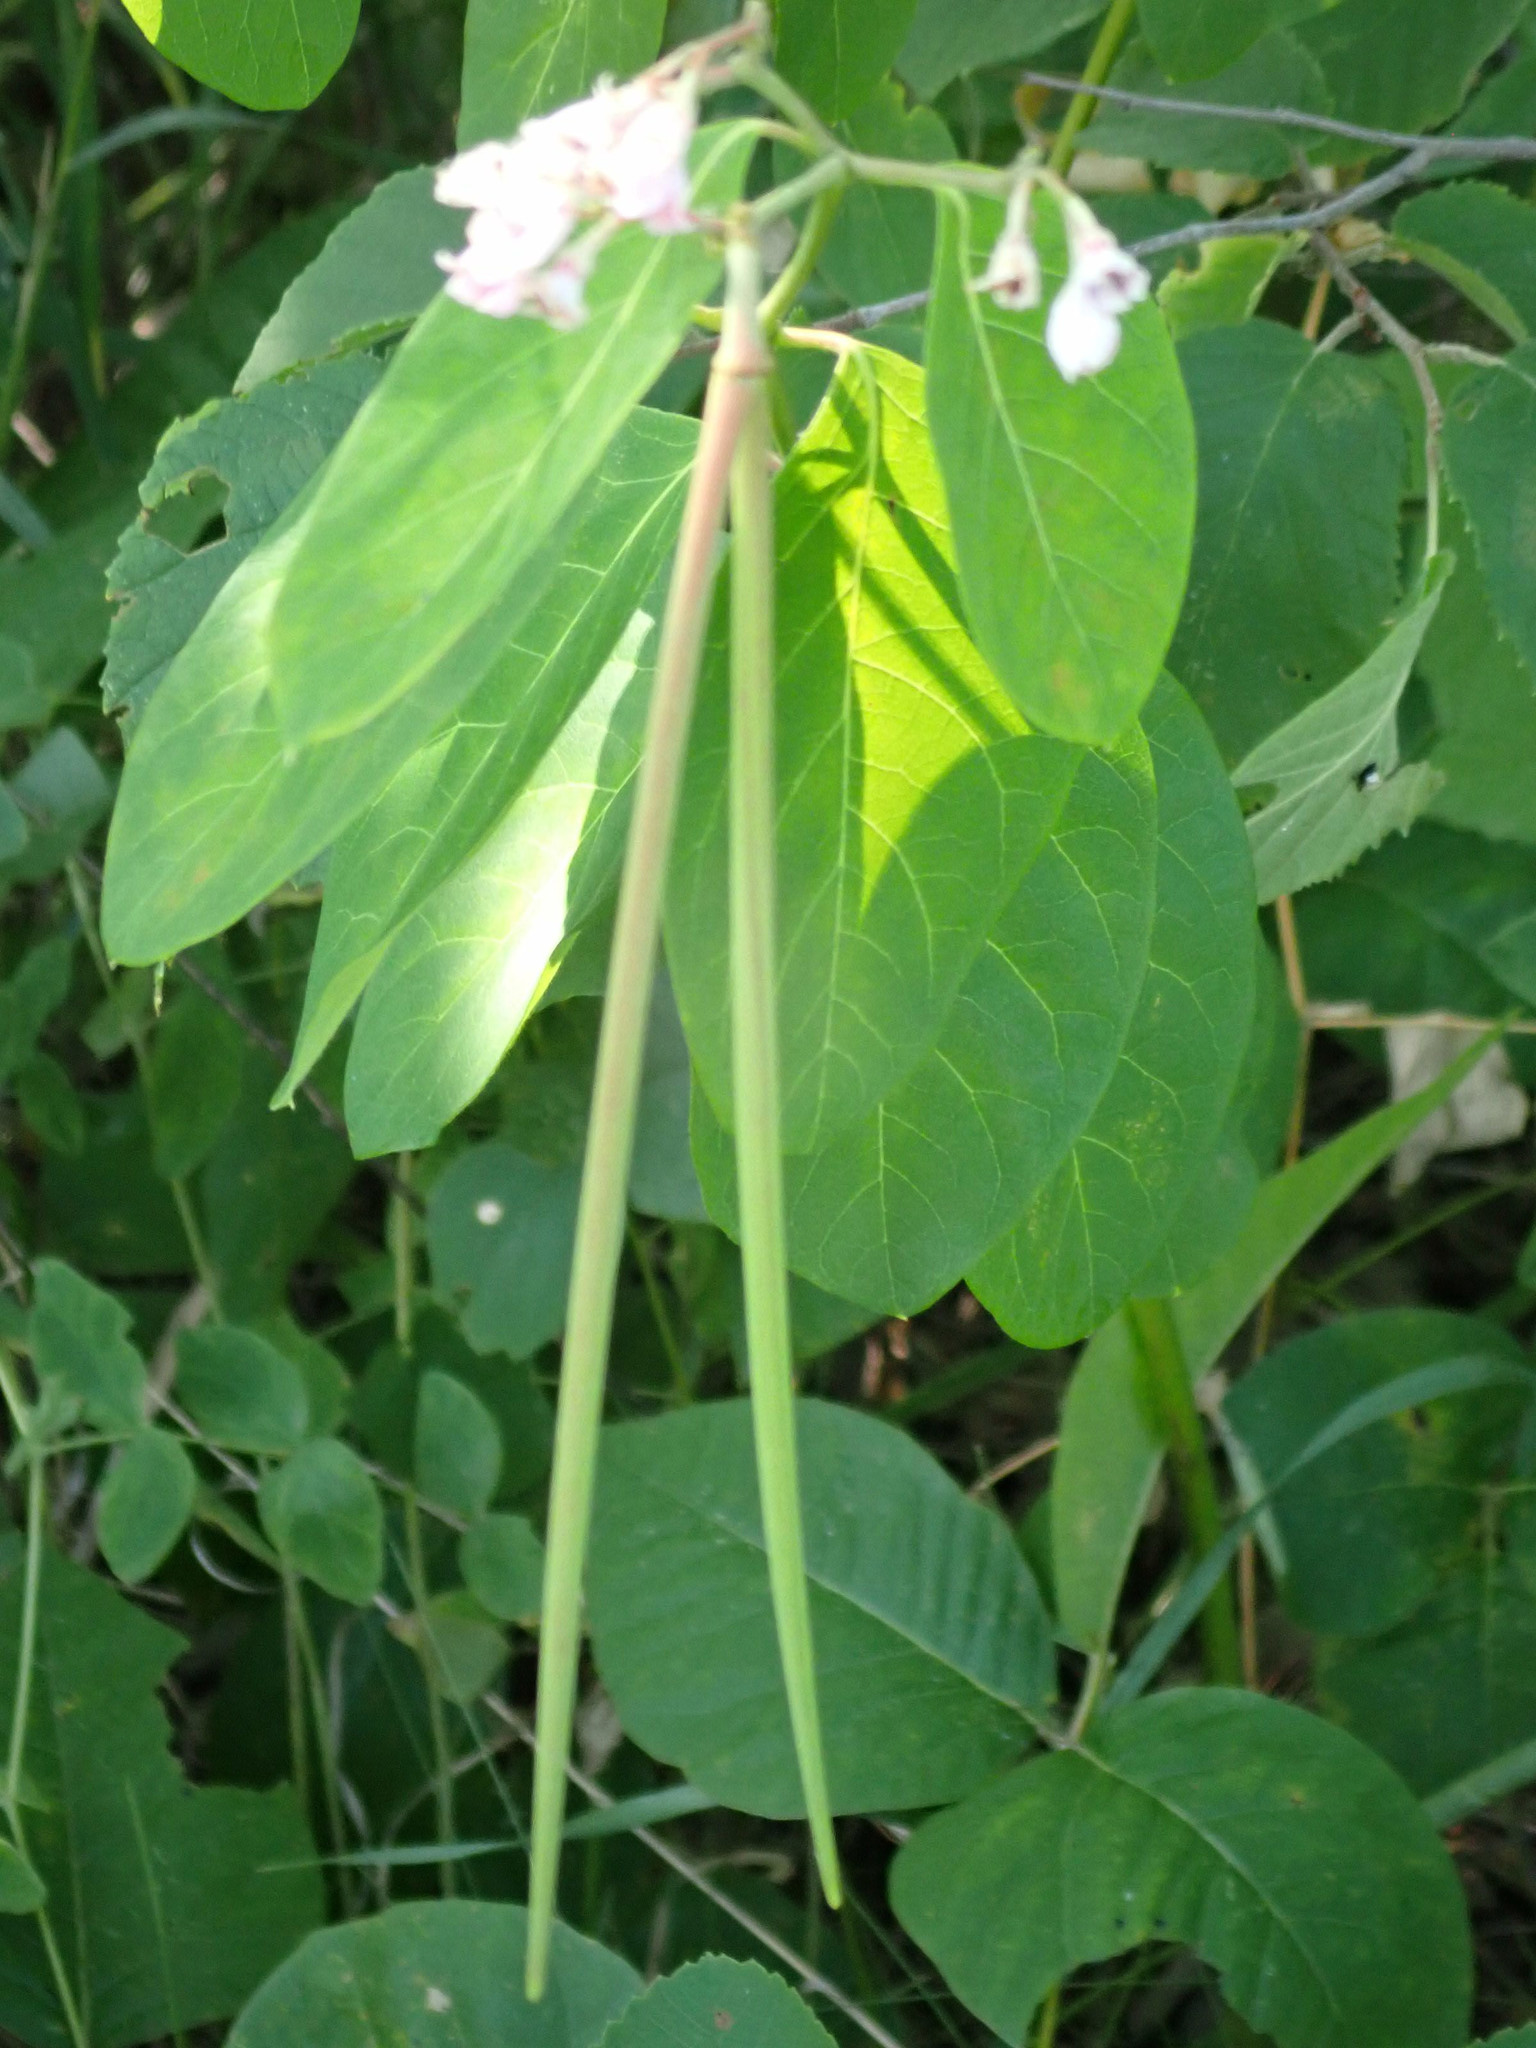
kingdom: Plantae
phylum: Tracheophyta
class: Magnoliopsida
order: Gentianales
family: Apocynaceae
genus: Apocynum
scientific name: Apocynum androsaemifolium
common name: Spreading dogbane
